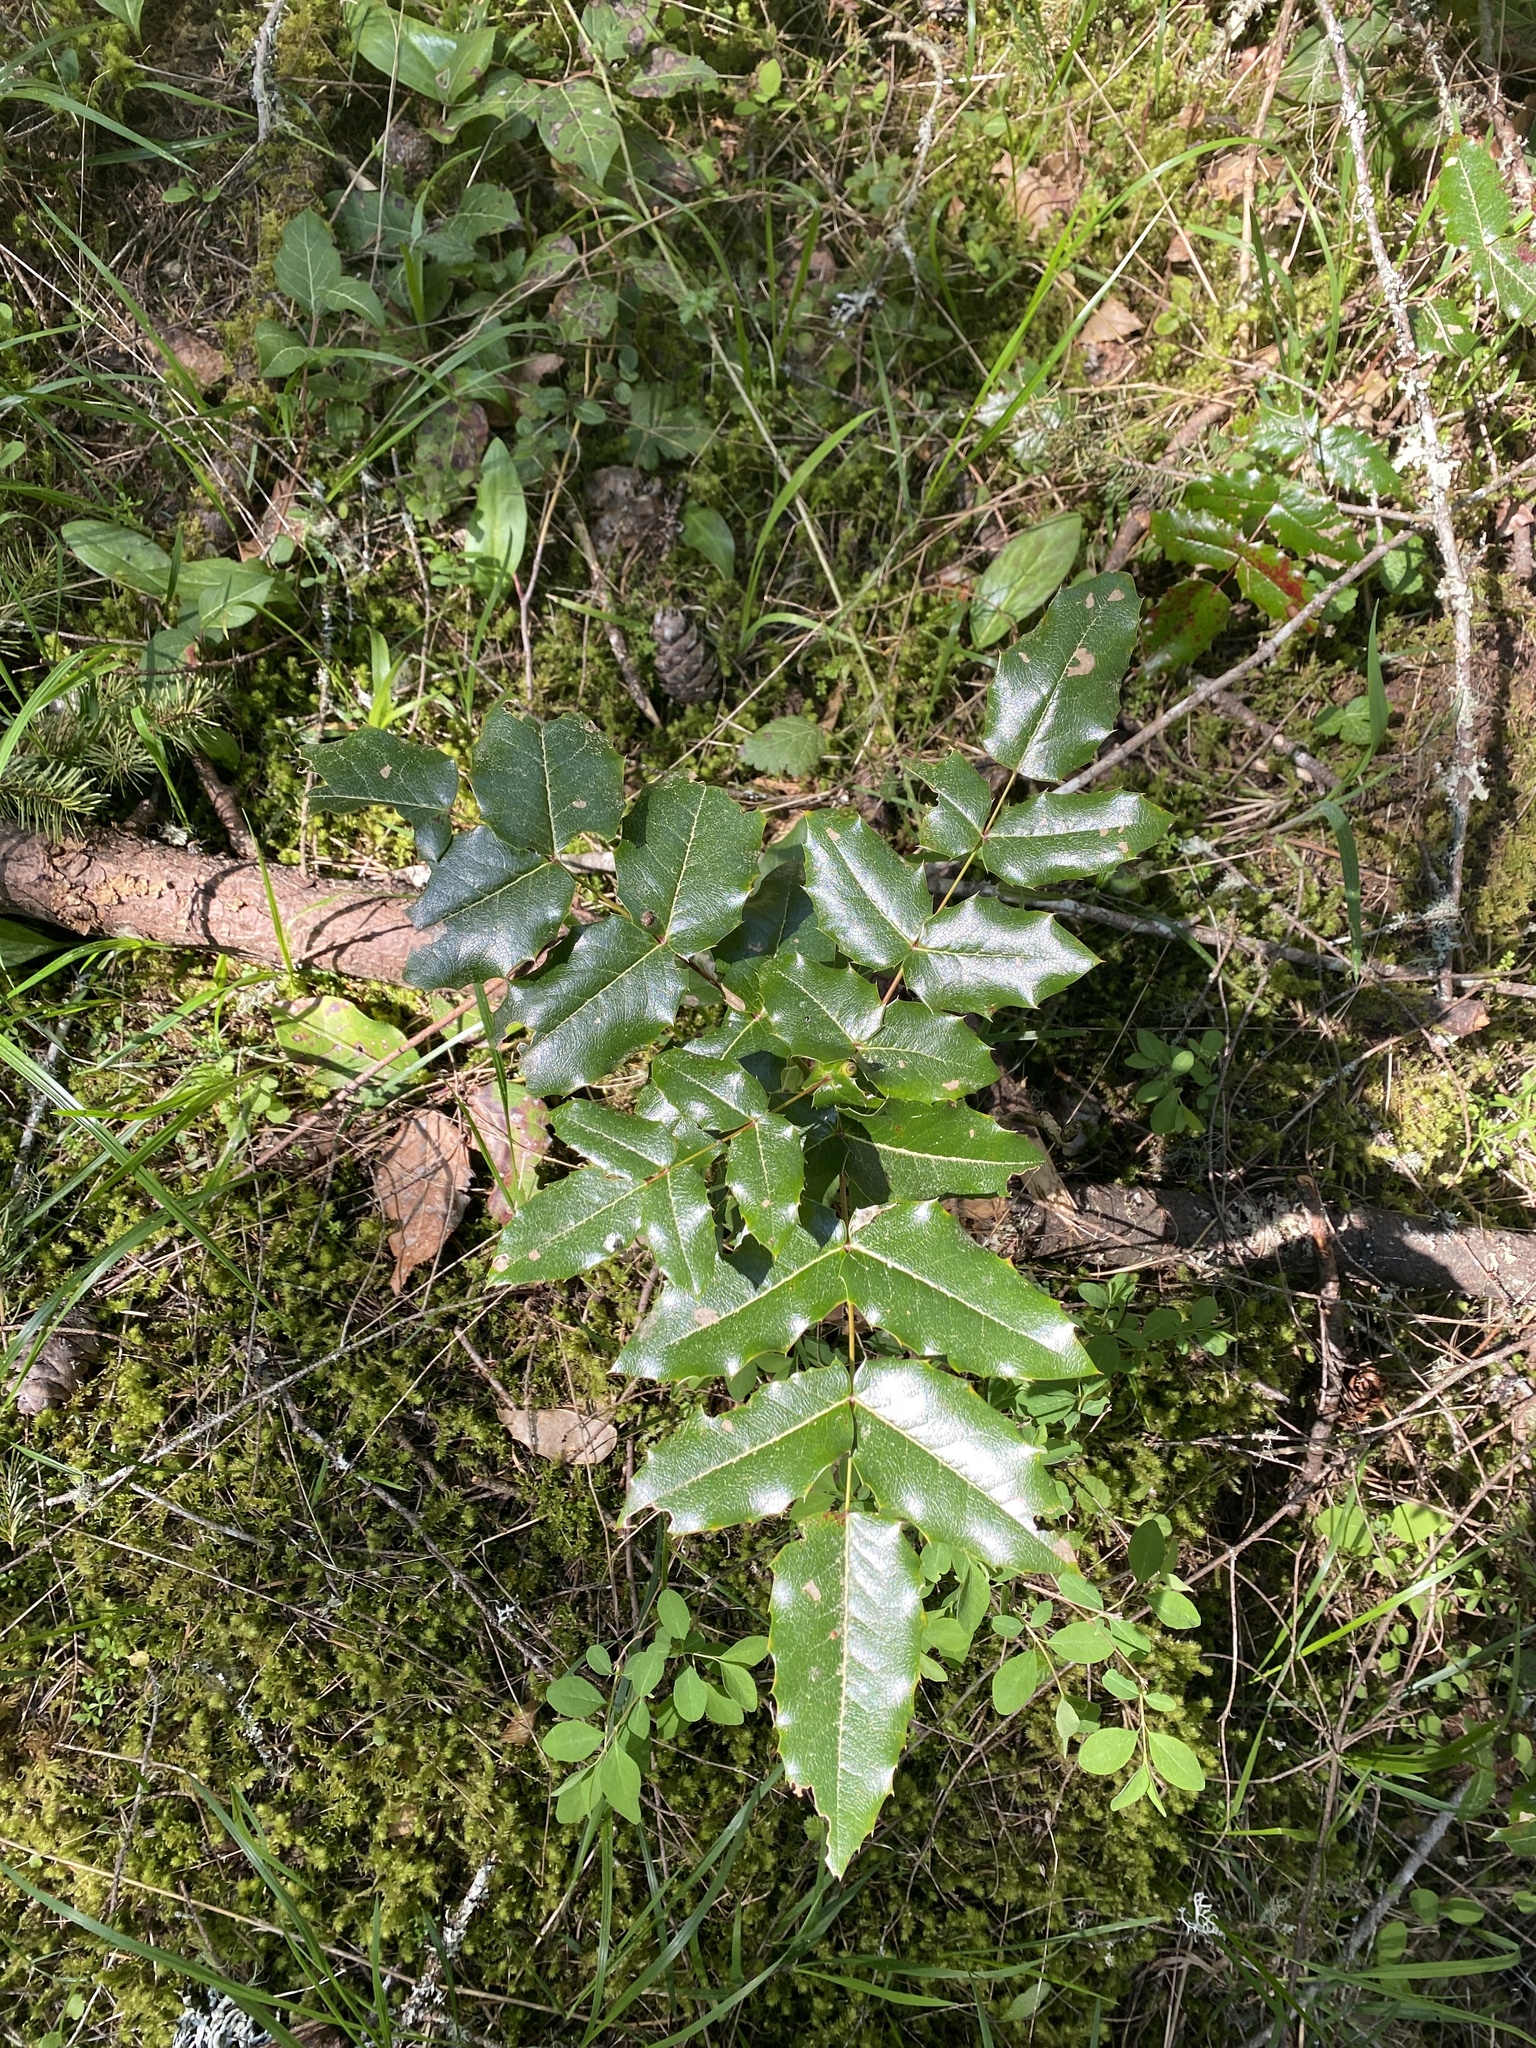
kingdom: Plantae
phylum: Tracheophyta
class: Magnoliopsida
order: Ranunculales
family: Berberidaceae
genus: Mahonia
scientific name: Mahonia aquifolium
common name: Oregon-grape
